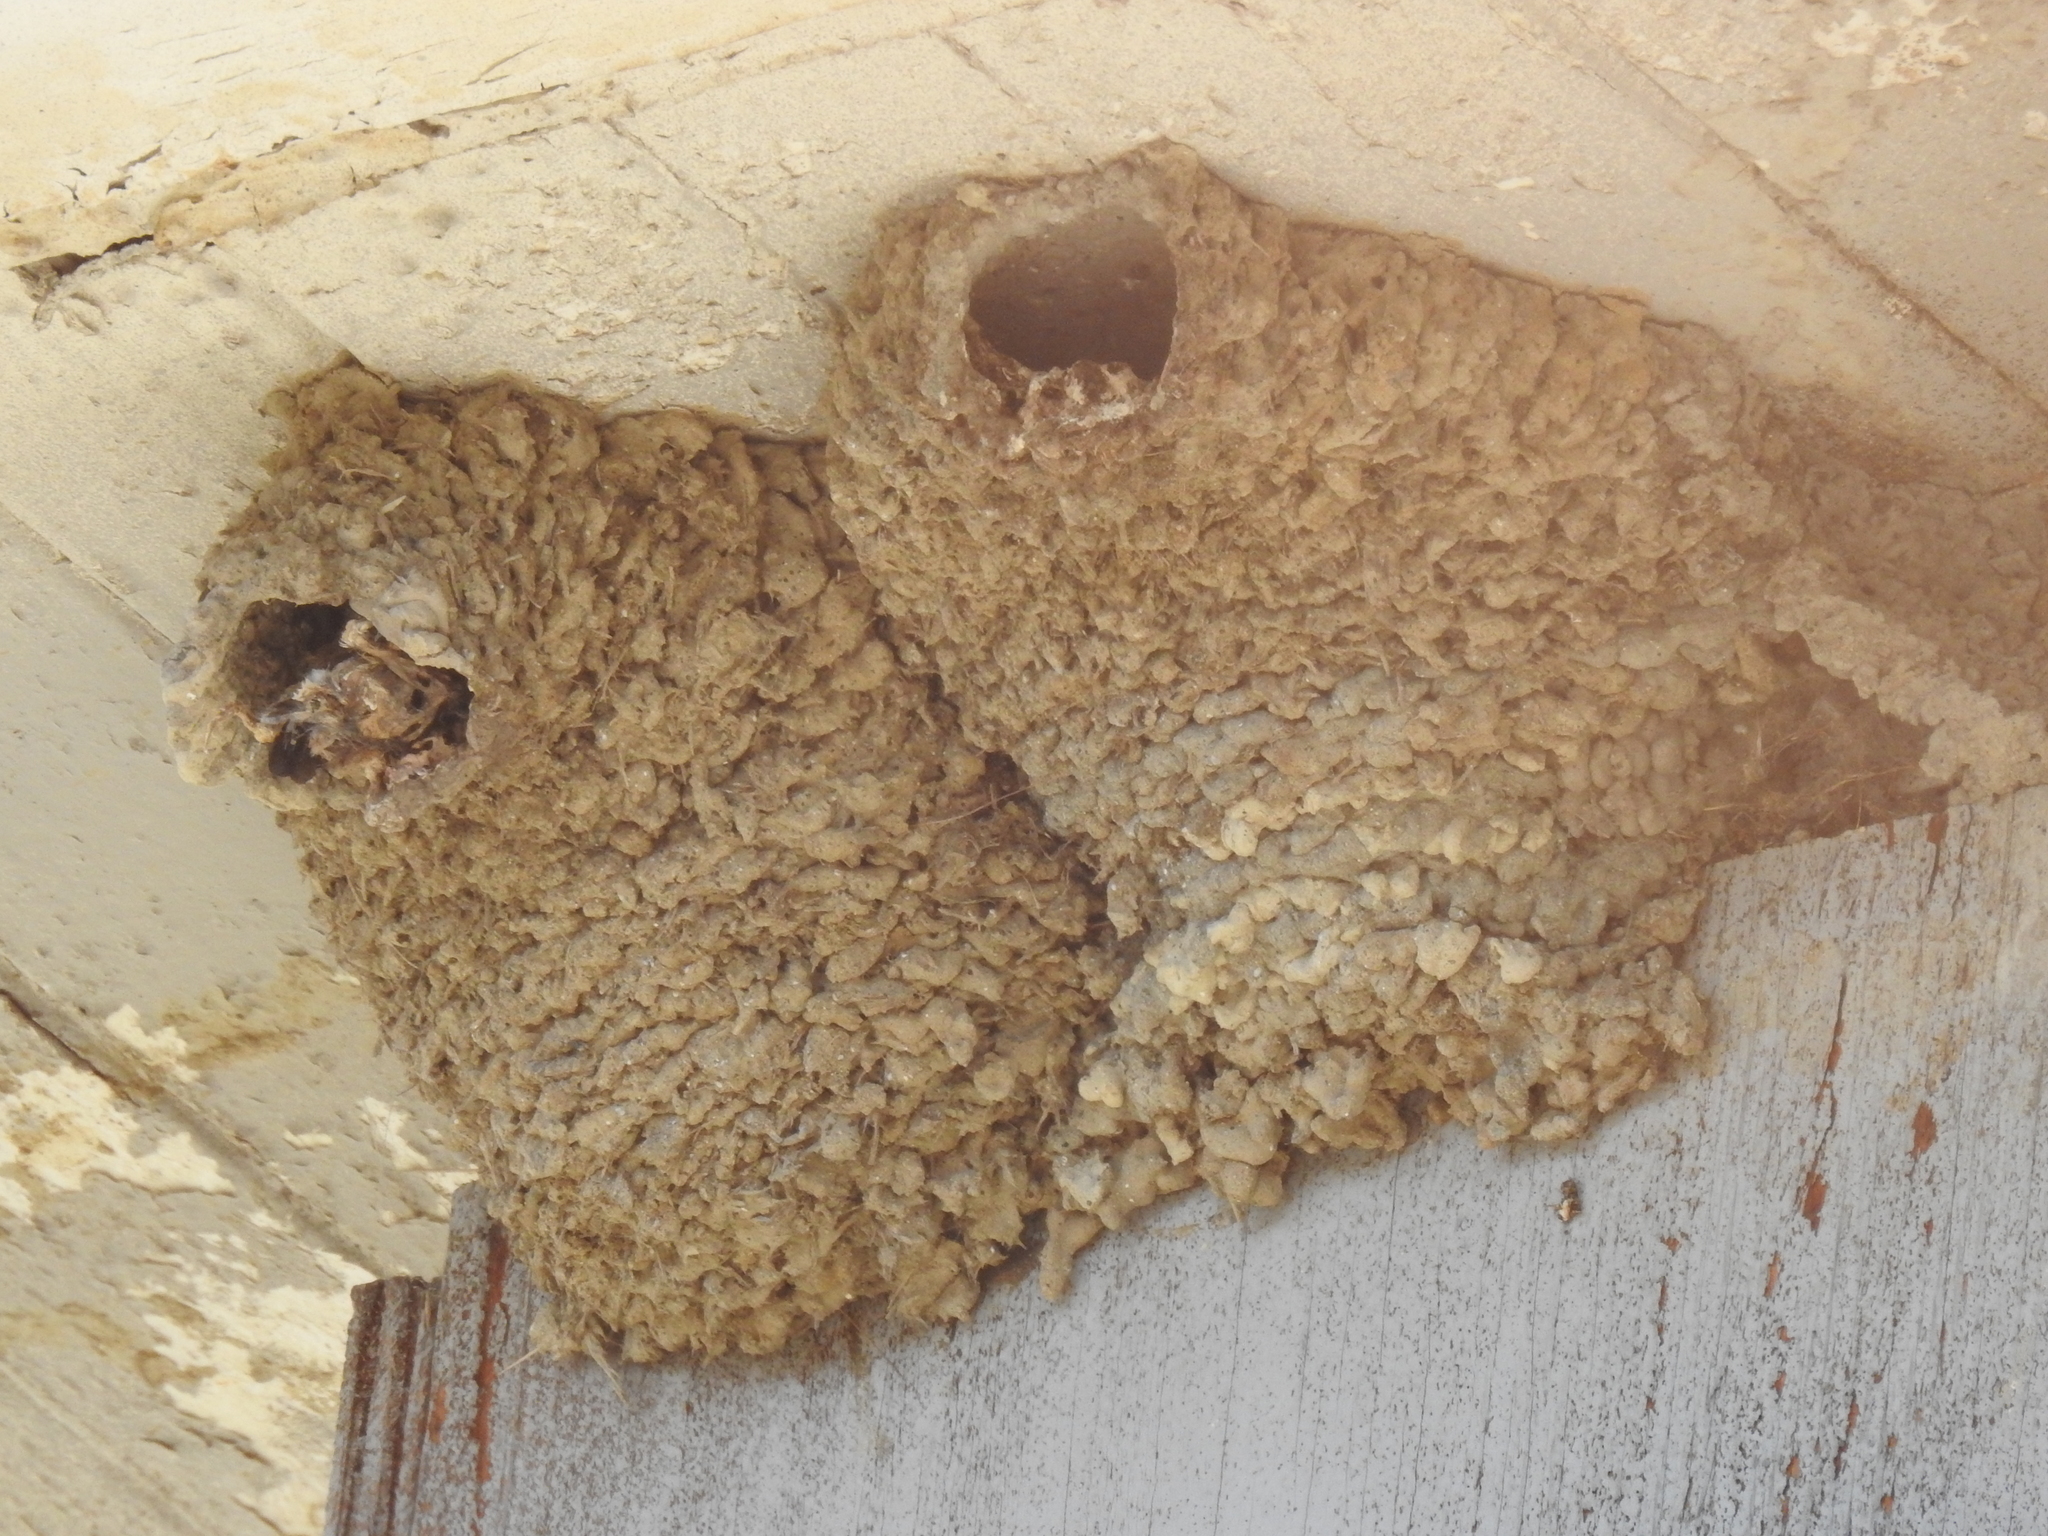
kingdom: Animalia
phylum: Chordata
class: Aves
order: Passeriformes
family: Hirundinidae
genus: Petrochelidon
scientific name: Petrochelidon pyrrhonota
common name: American cliff swallow
